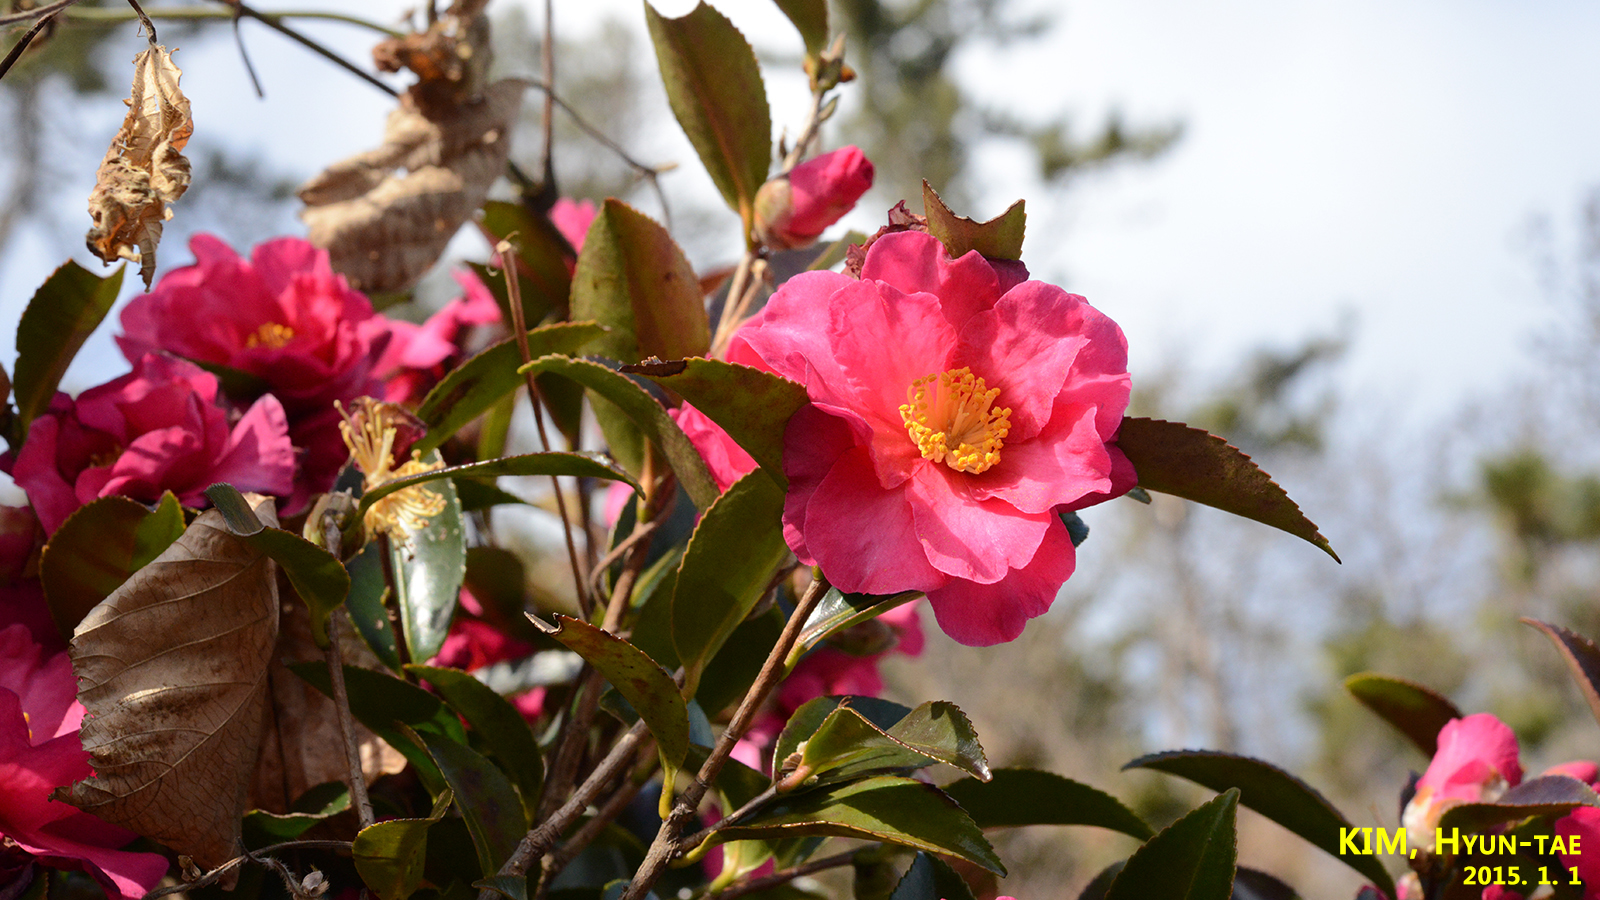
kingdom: Plantae
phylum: Tracheophyta
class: Magnoliopsida
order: Ericales
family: Theaceae
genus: Camellia
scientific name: Camellia sasanqua
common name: Sasanqua camellia
